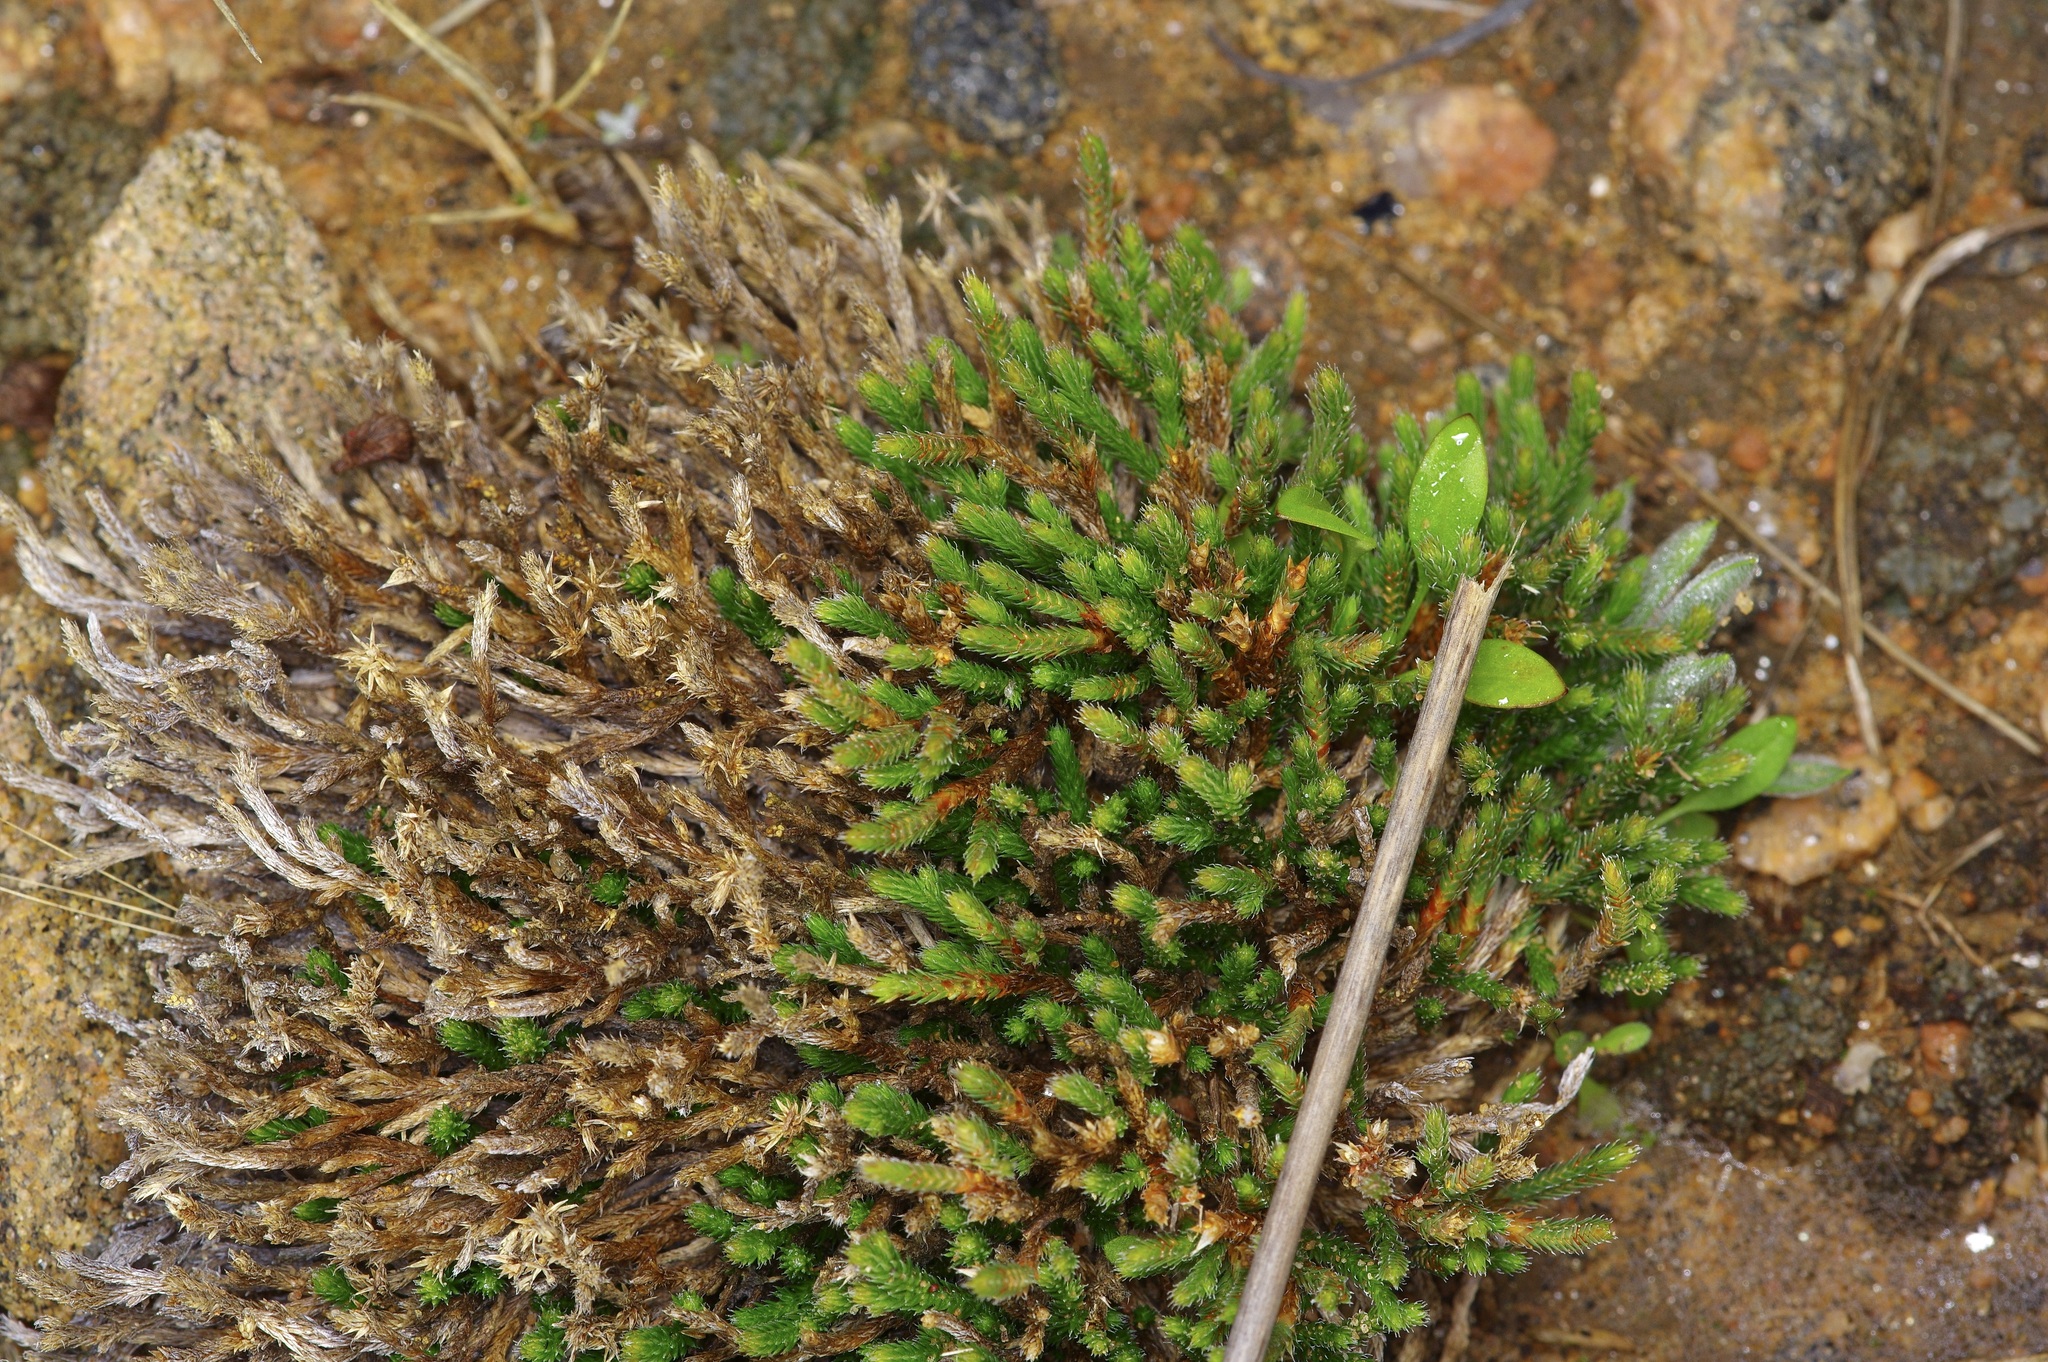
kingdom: Plantae
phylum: Tracheophyta
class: Lycopodiopsida
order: Selaginellales
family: Selaginellaceae
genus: Selaginella
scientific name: Selaginella corallina
